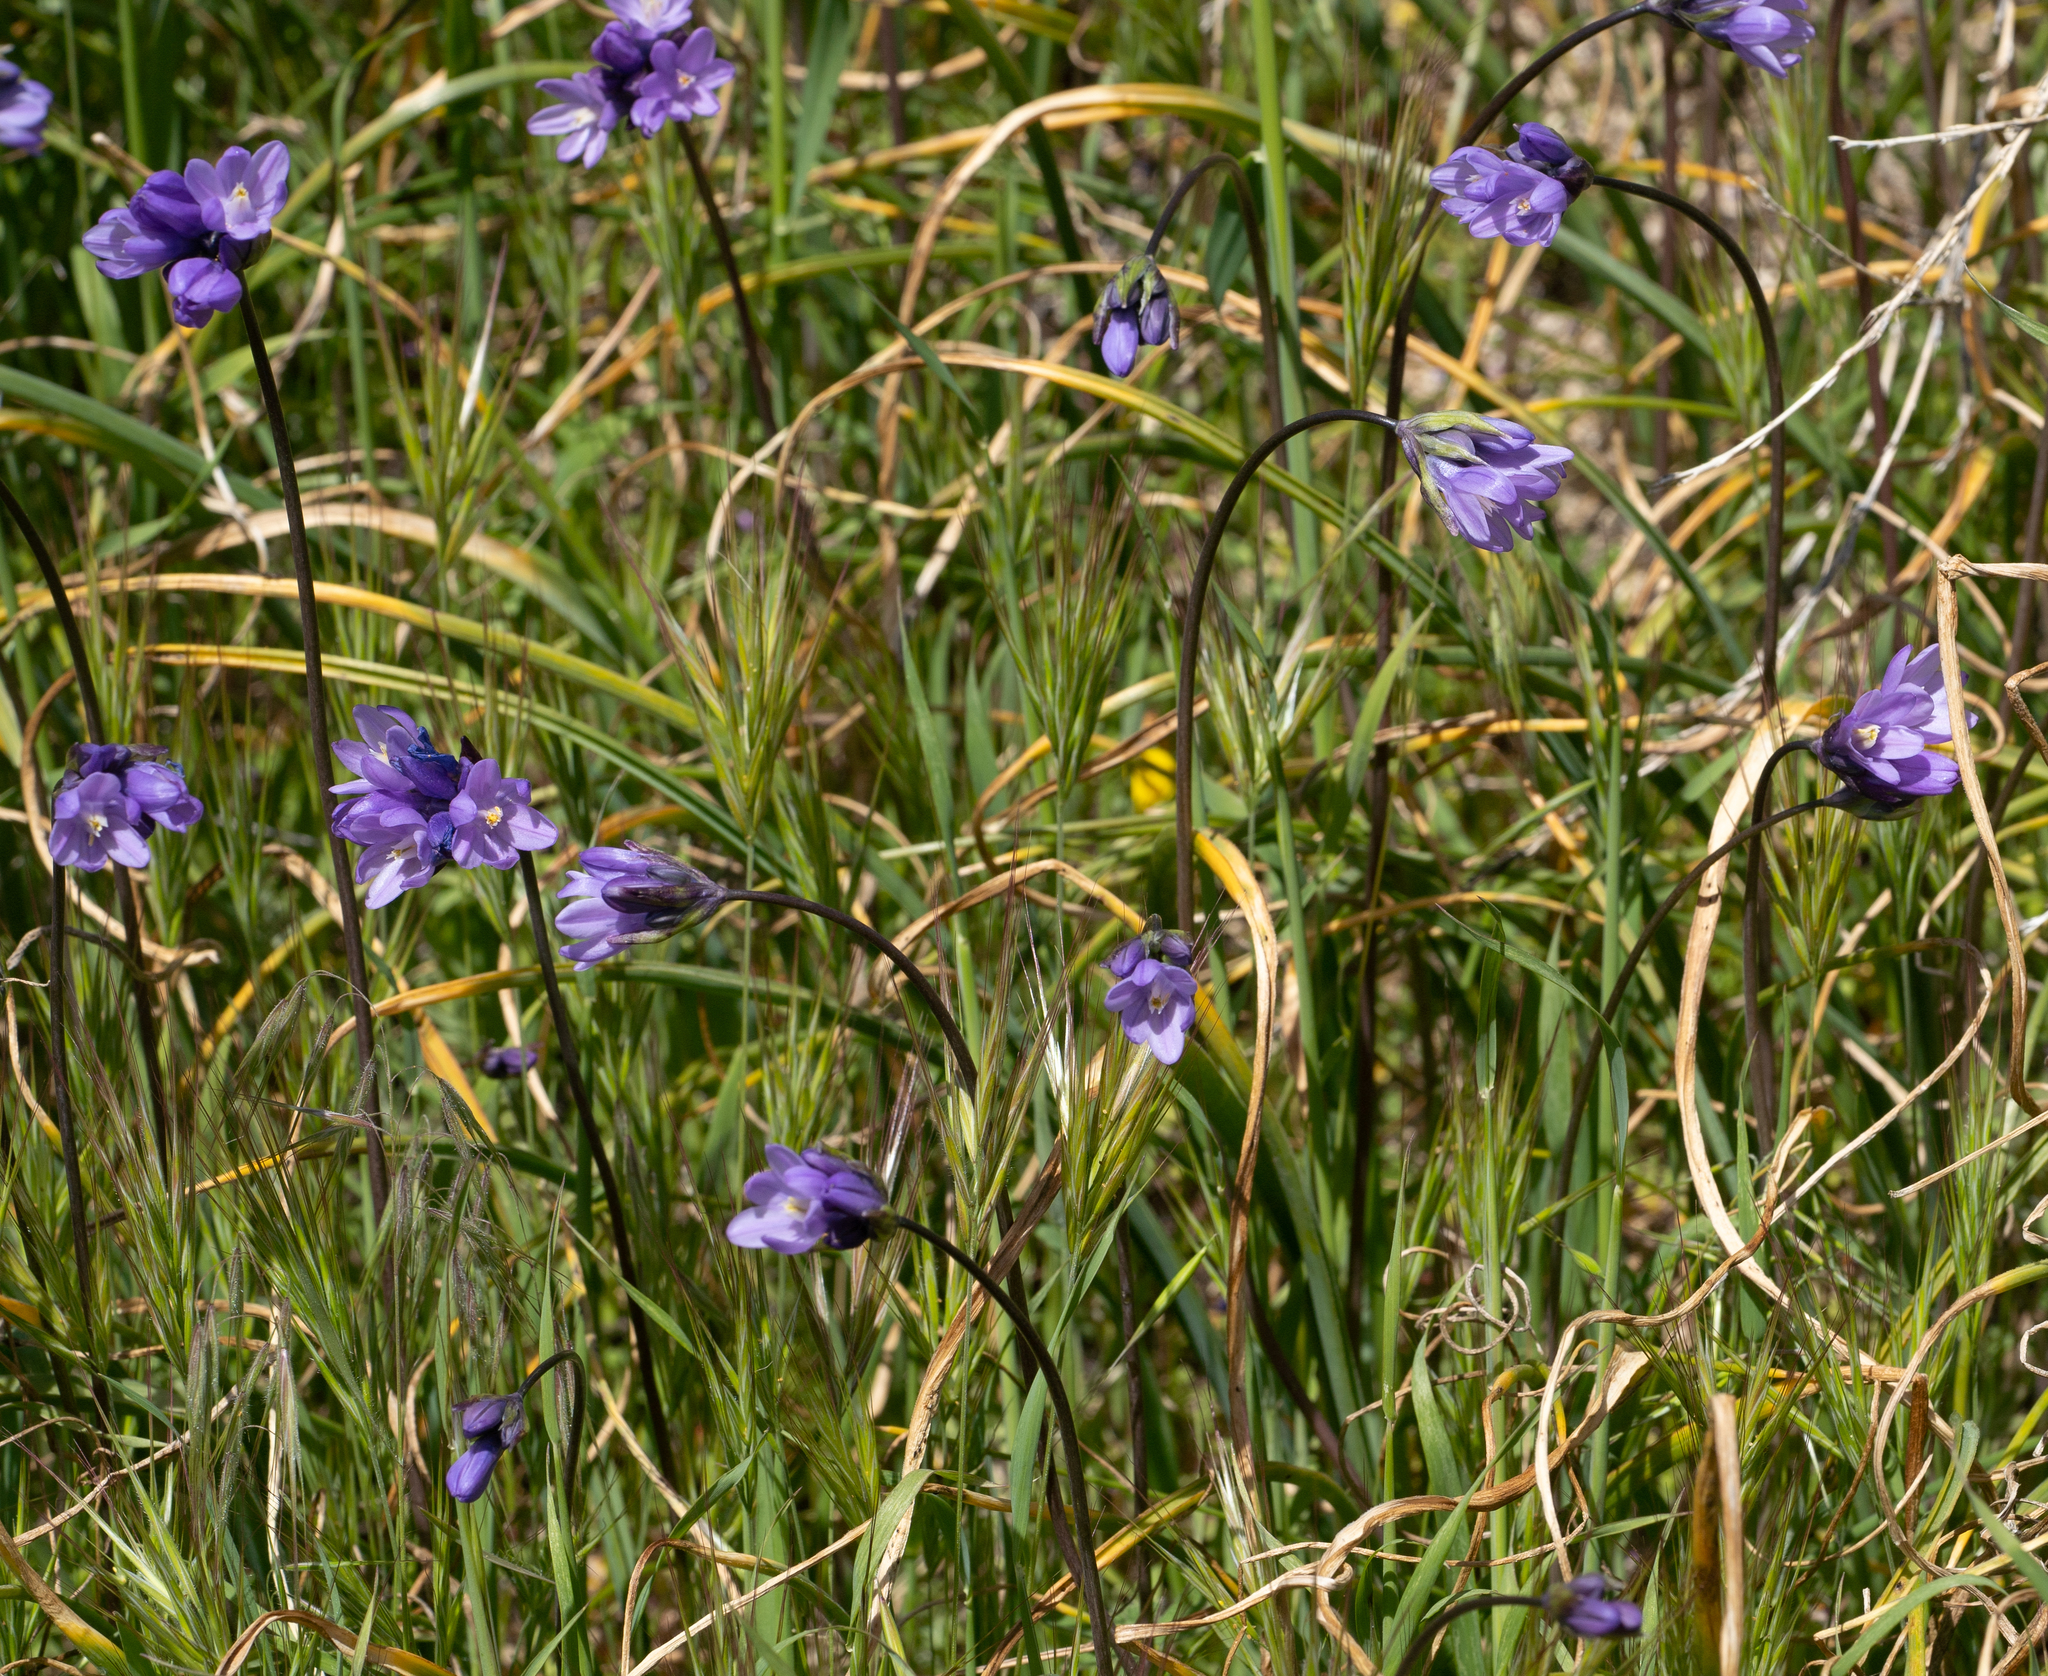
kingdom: Plantae
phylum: Tracheophyta
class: Liliopsida
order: Asparagales
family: Asparagaceae
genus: Dipterostemon
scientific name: Dipterostemon capitatus
